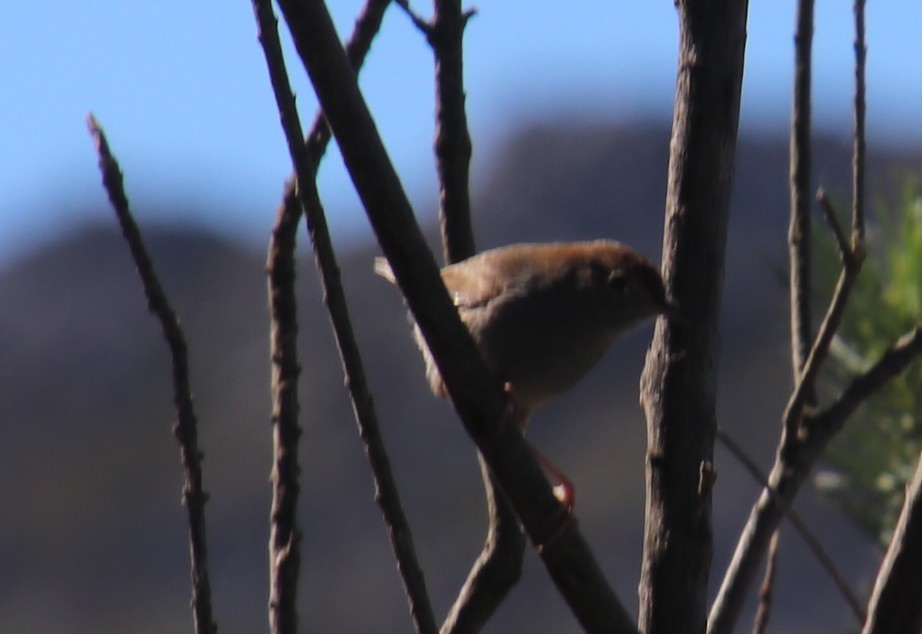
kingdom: Animalia
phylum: Chordata
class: Aves
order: Passeriformes
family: Cisticolidae
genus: Cisticola
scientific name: Cisticola fulvicapilla
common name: Neddicky
